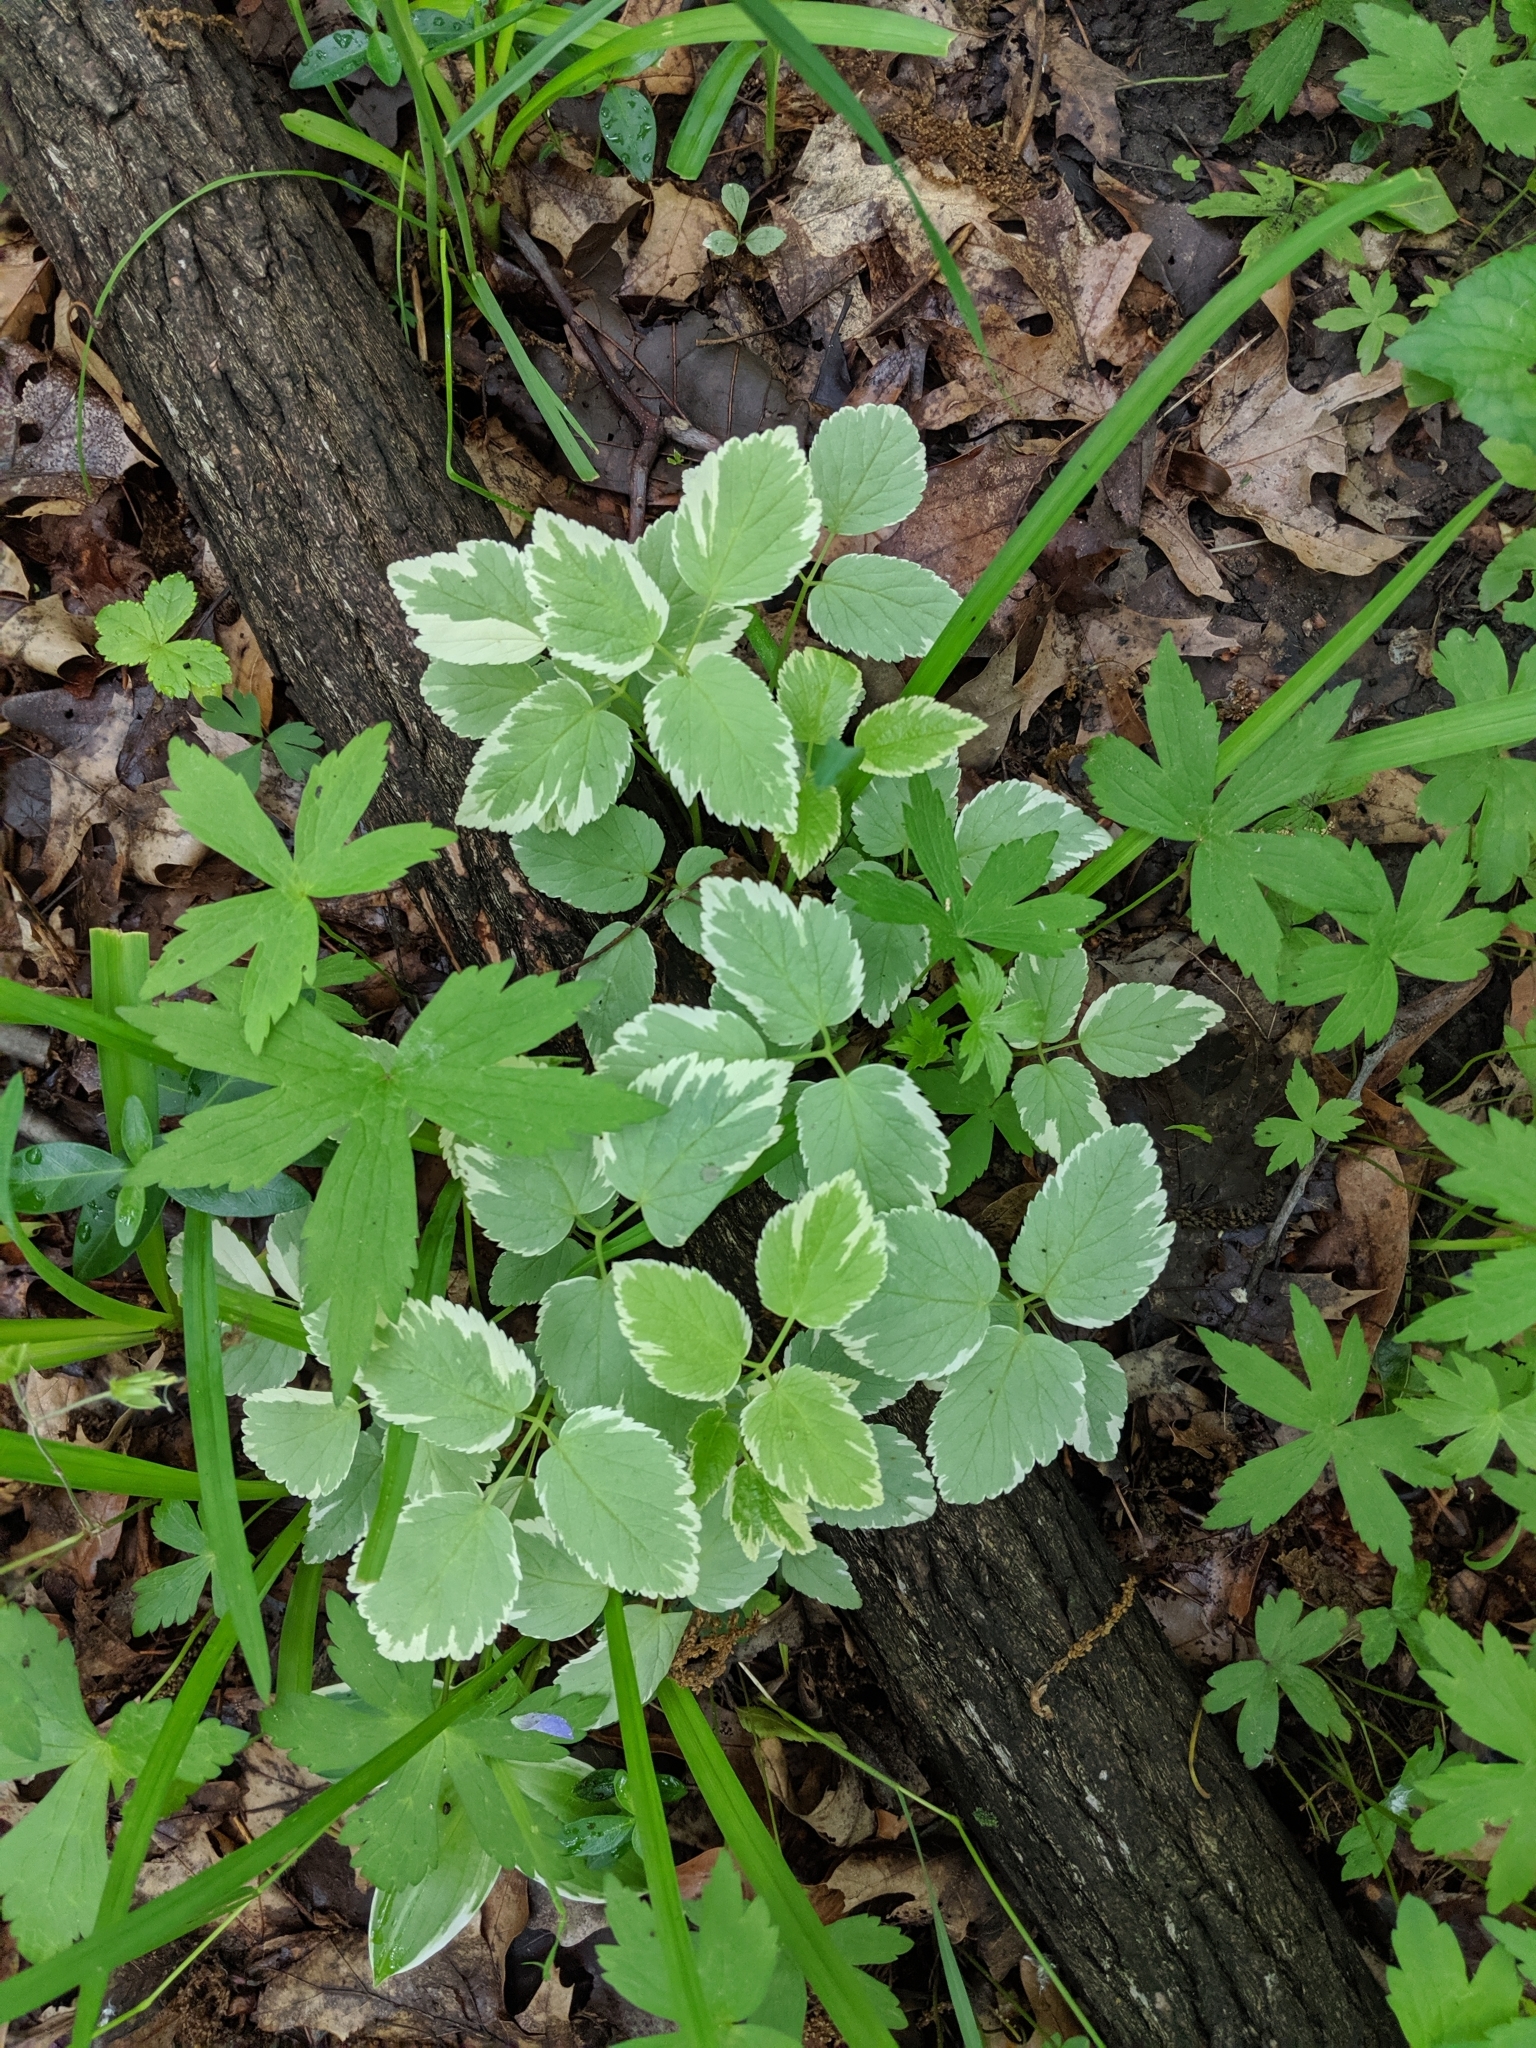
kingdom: Plantae
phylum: Tracheophyta
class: Magnoliopsida
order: Apiales
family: Apiaceae
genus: Aegopodium
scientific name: Aegopodium podagraria
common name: Ground-elder
